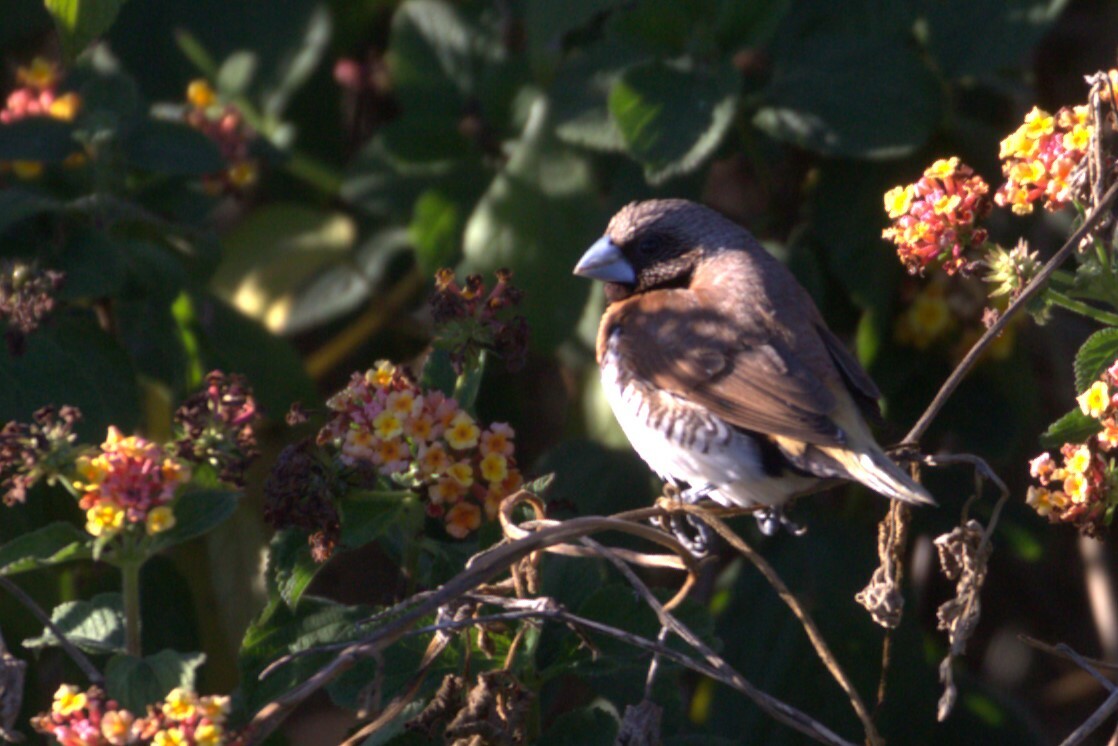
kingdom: Animalia
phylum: Chordata
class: Aves
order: Passeriformes
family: Estrildidae
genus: Lonchura
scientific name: Lonchura castaneothorax
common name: Chestnut-breasted mannikin
